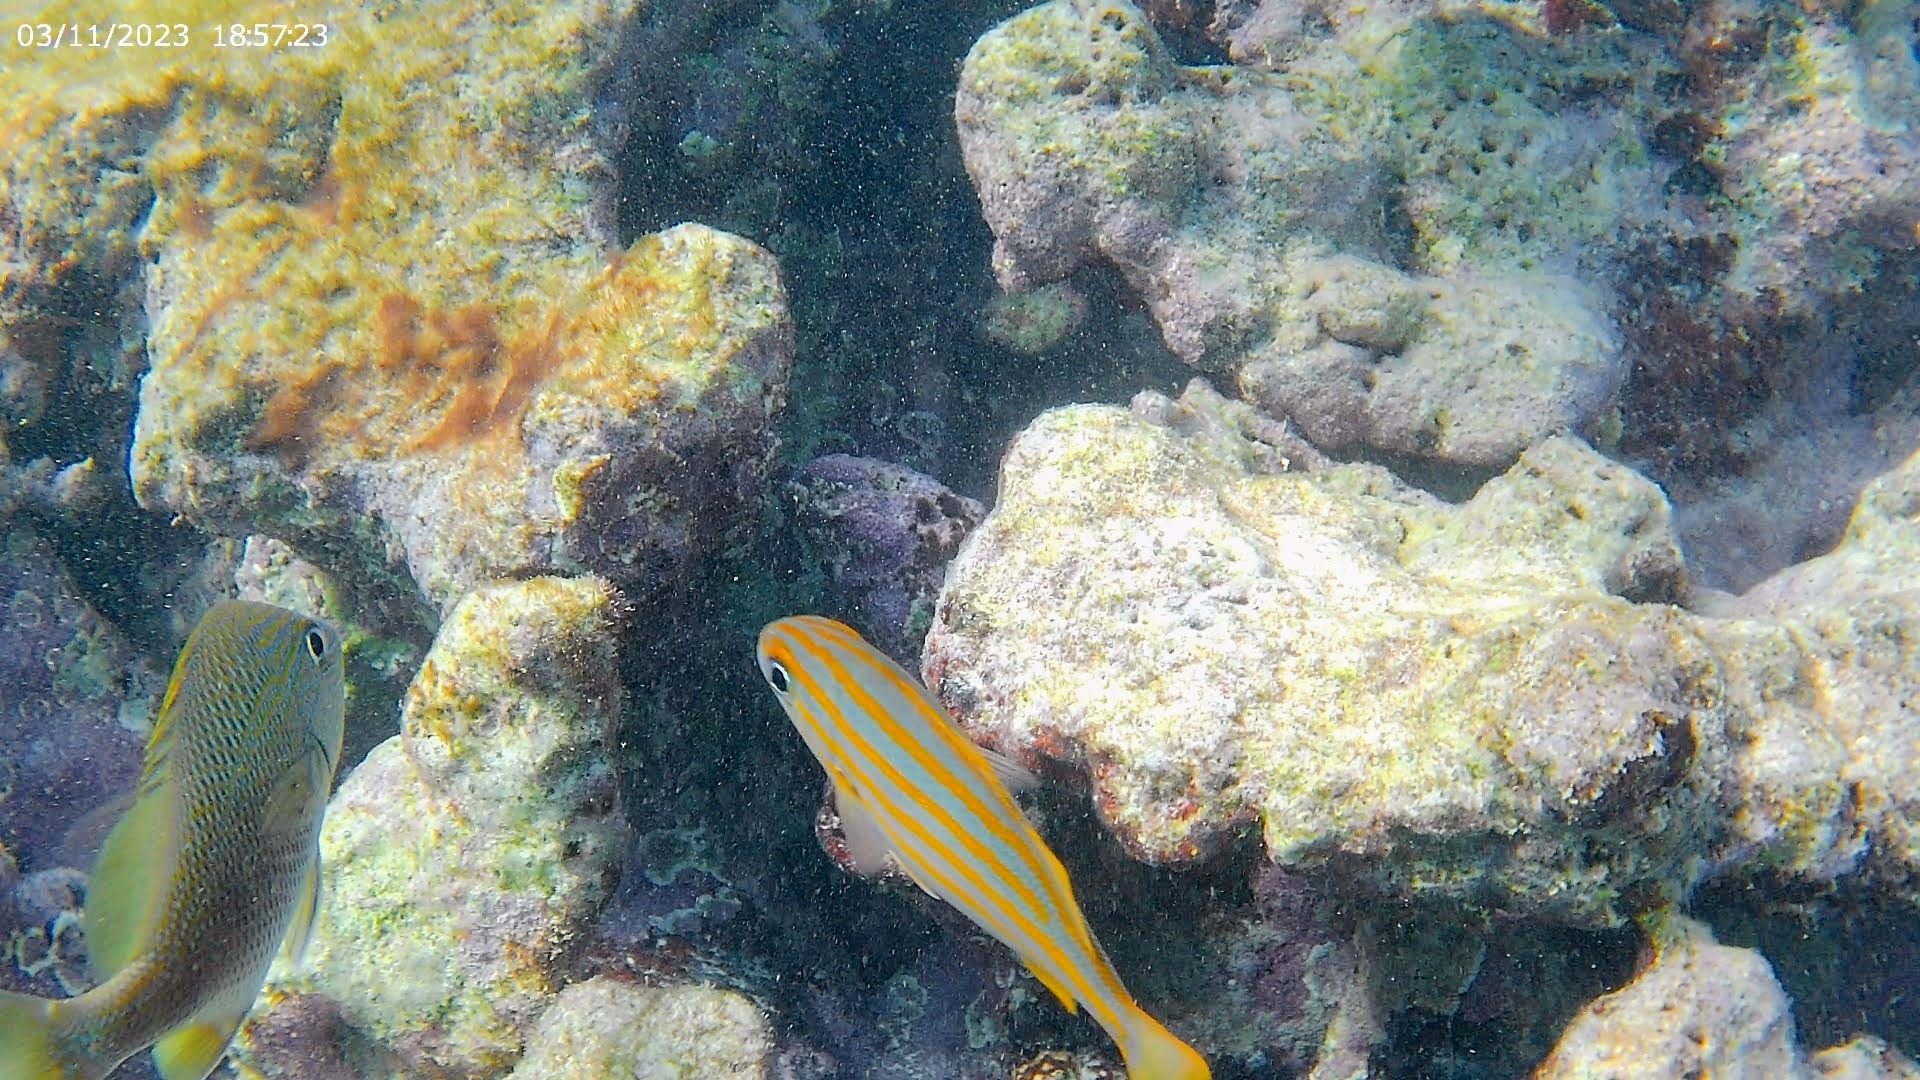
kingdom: Animalia
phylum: Chordata
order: Perciformes
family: Haemulidae
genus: Haemulon
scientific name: Haemulon chrysargyreum
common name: Smallmouth grunt
